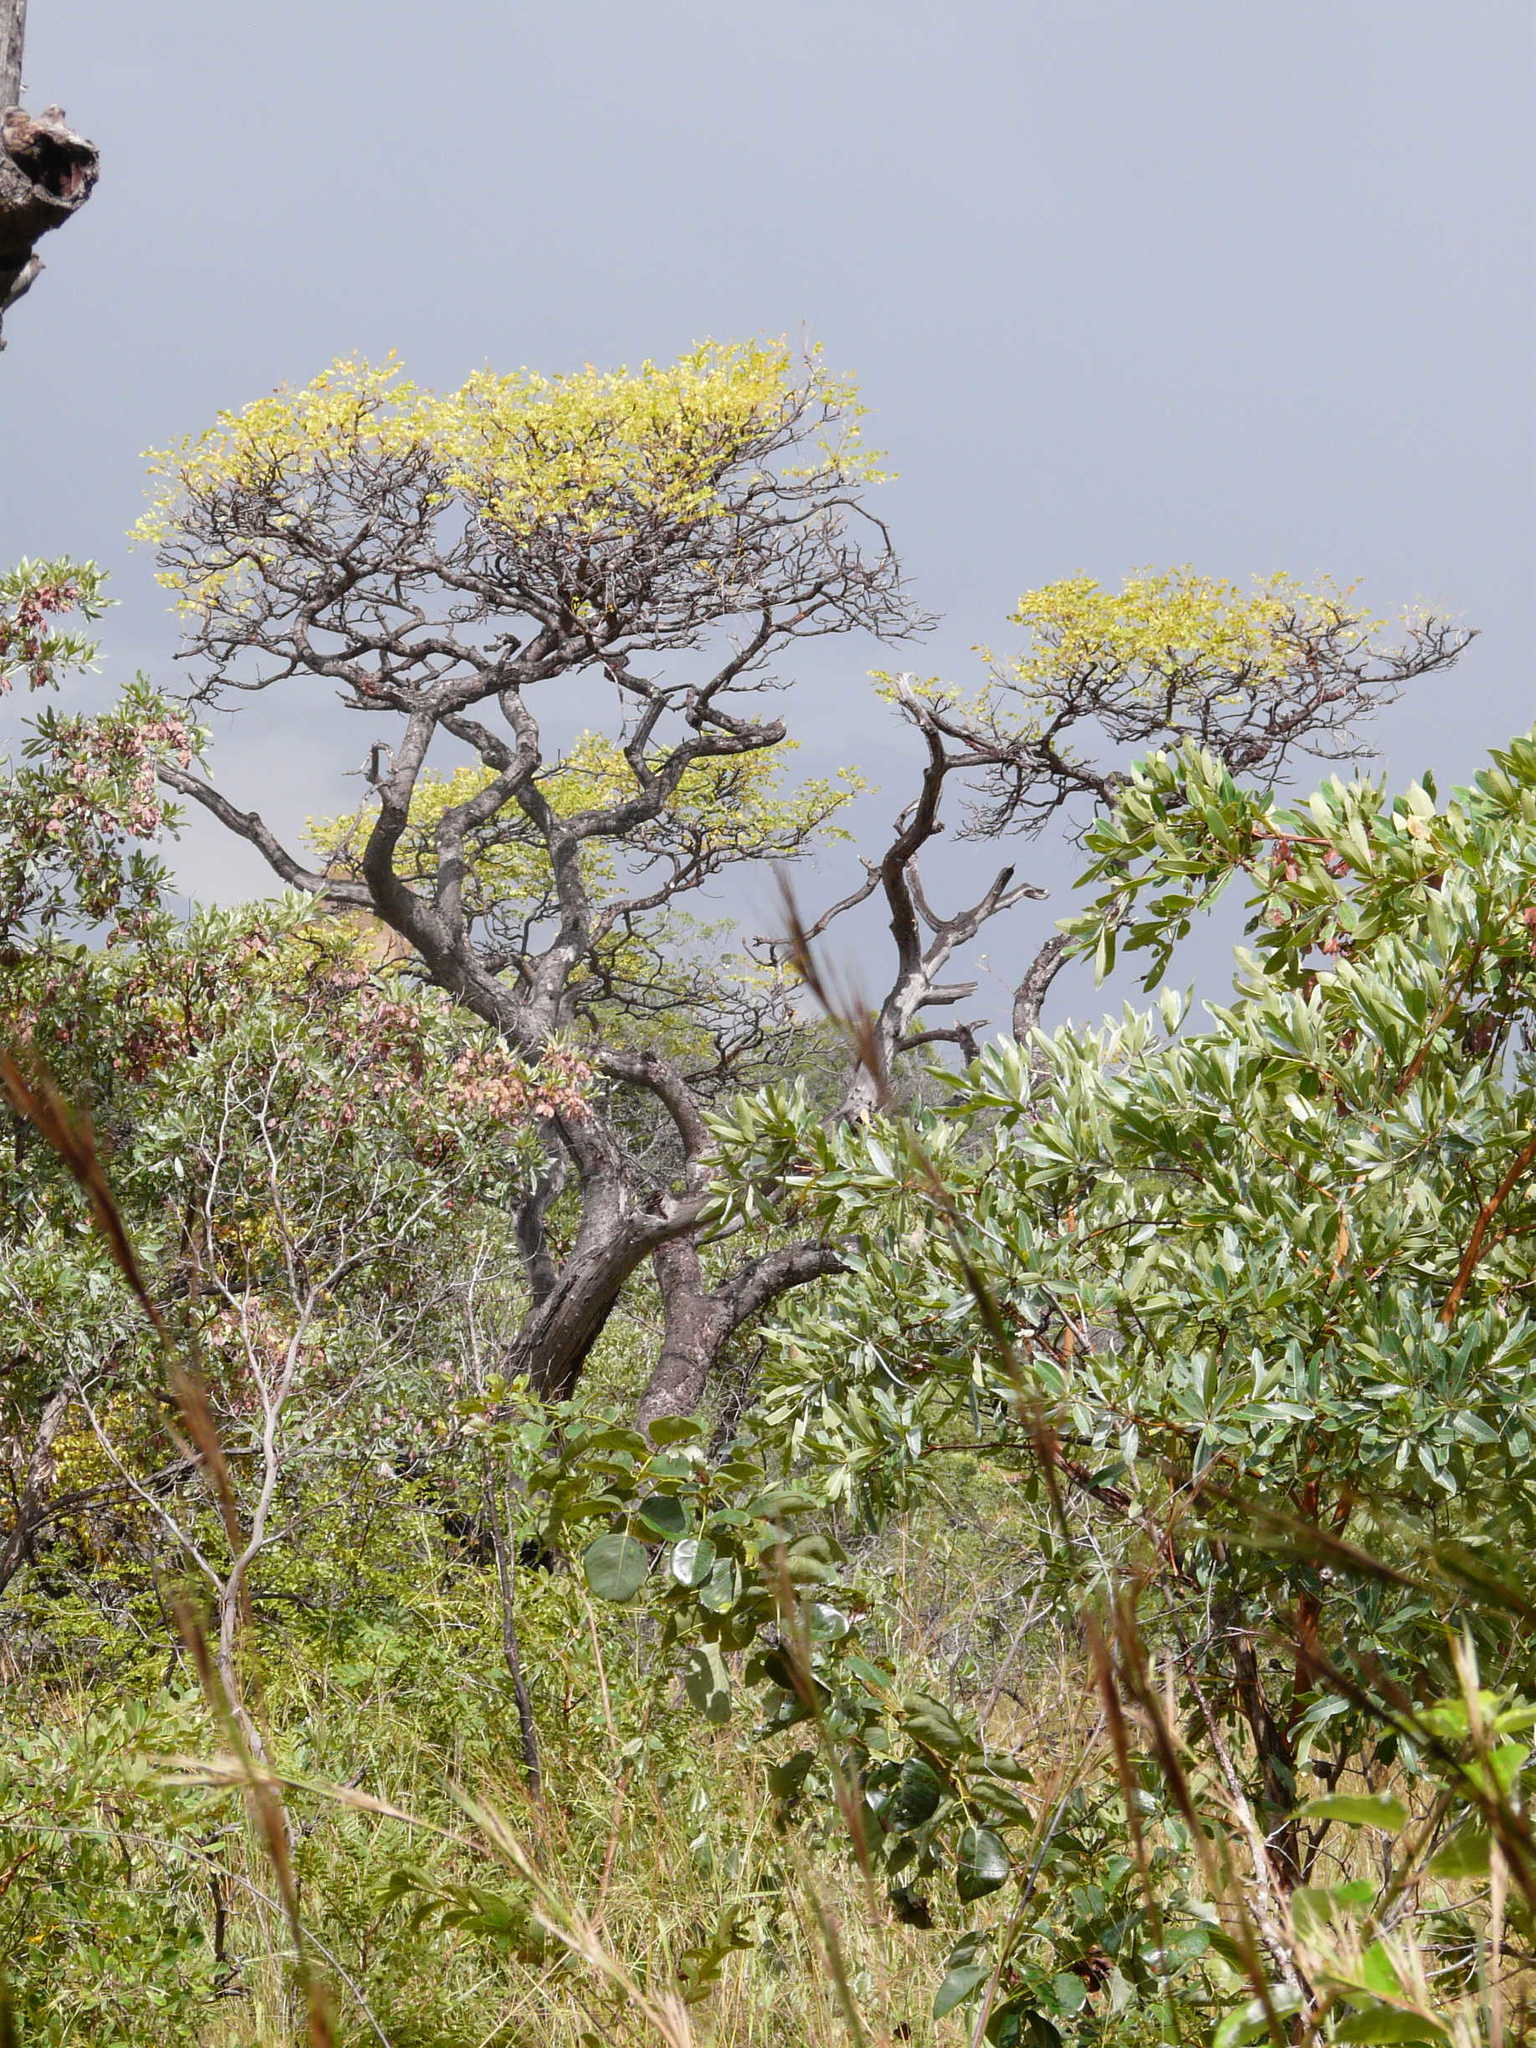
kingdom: Plantae
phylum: Tracheophyta
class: Magnoliopsida
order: Fabales
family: Fabaceae
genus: Burkea
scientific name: Burkea africana
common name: Mkalati tree
